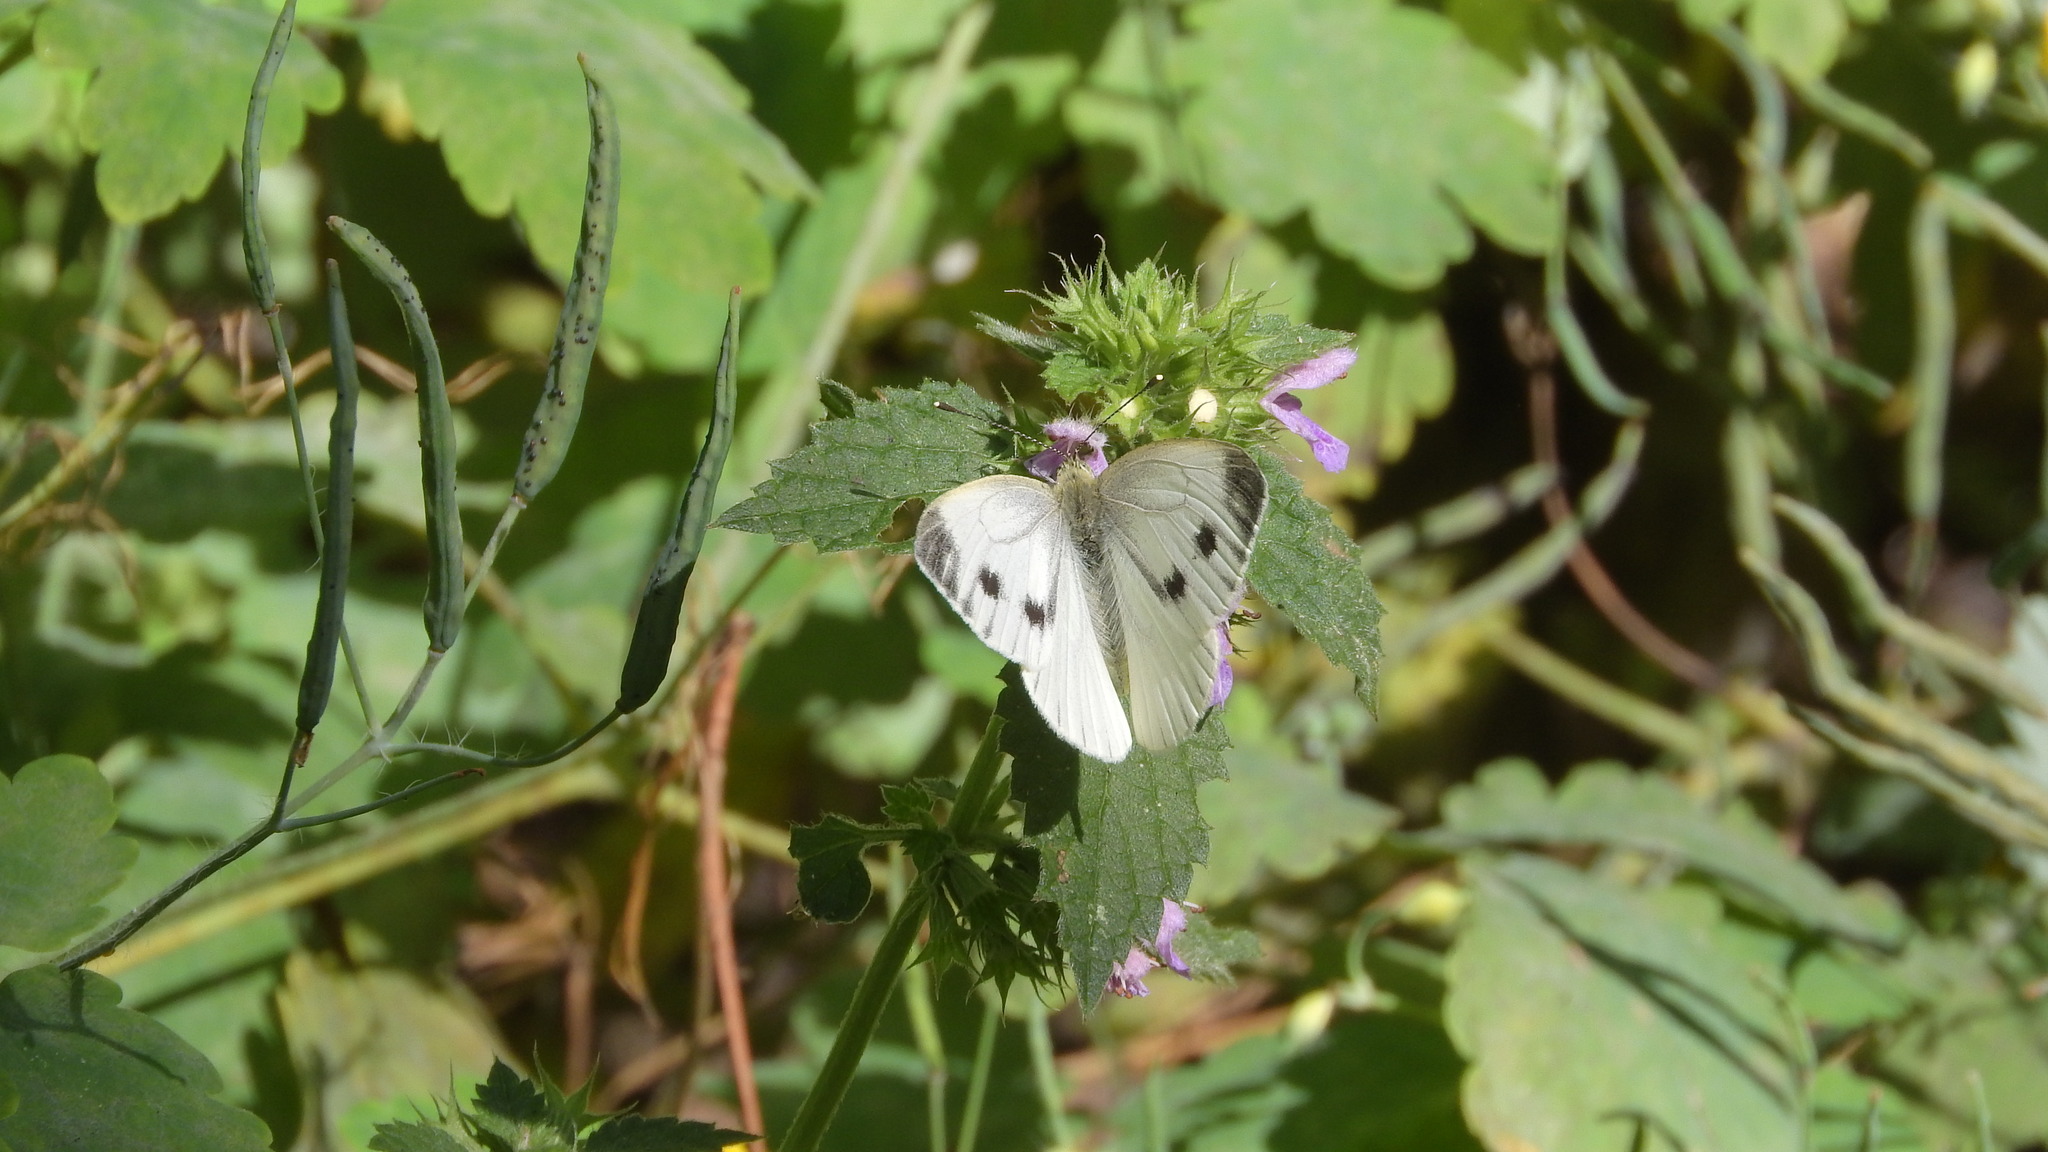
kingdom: Animalia
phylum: Arthropoda
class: Insecta
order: Lepidoptera
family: Pieridae
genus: Pieris
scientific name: Pieris napi
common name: Green-veined white
